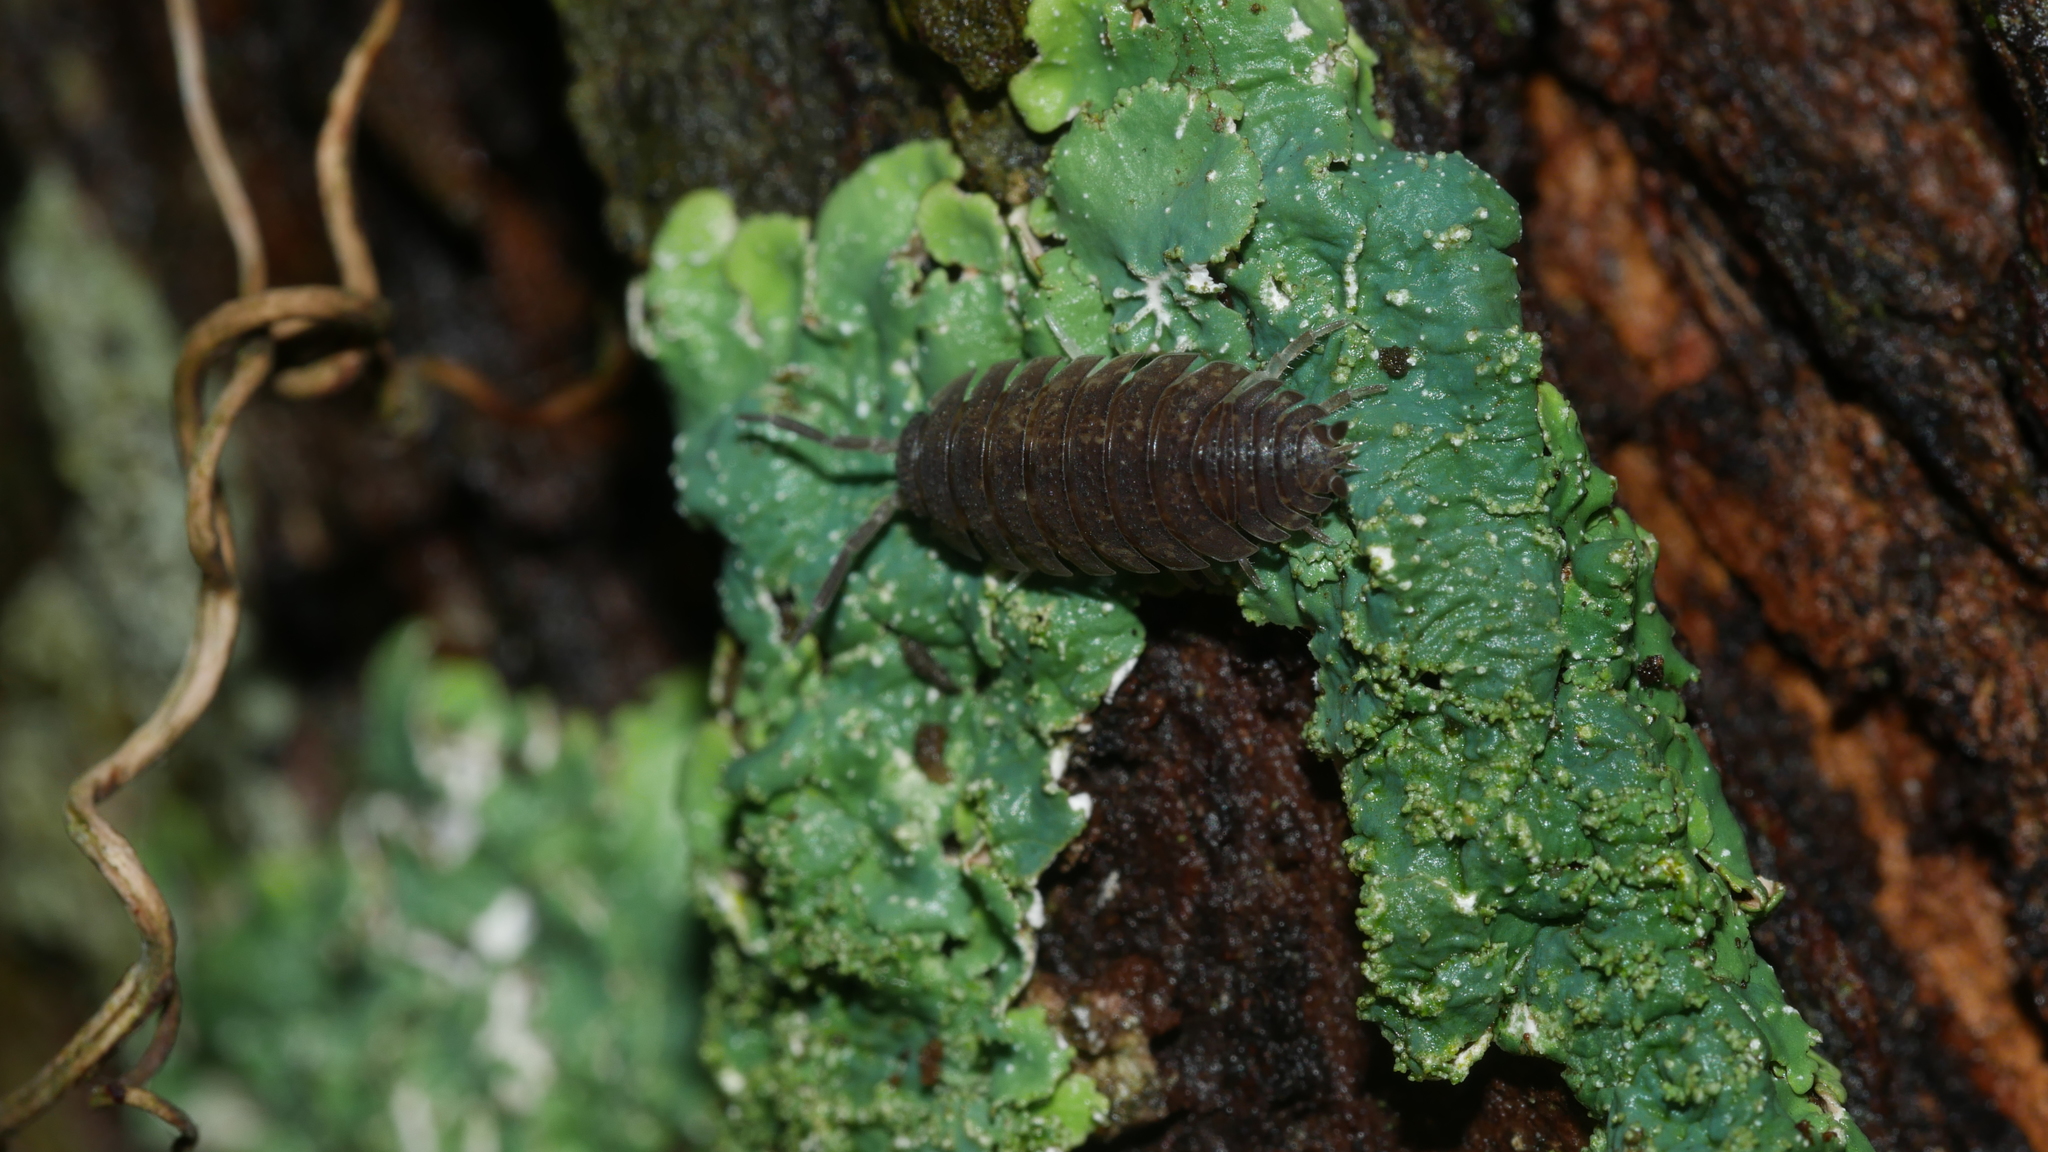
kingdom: Animalia
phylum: Arthropoda
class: Malacostraca
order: Isopoda
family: Porcellionidae
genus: Porcellio
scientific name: Porcellio scaber
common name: Common rough woodlouse
